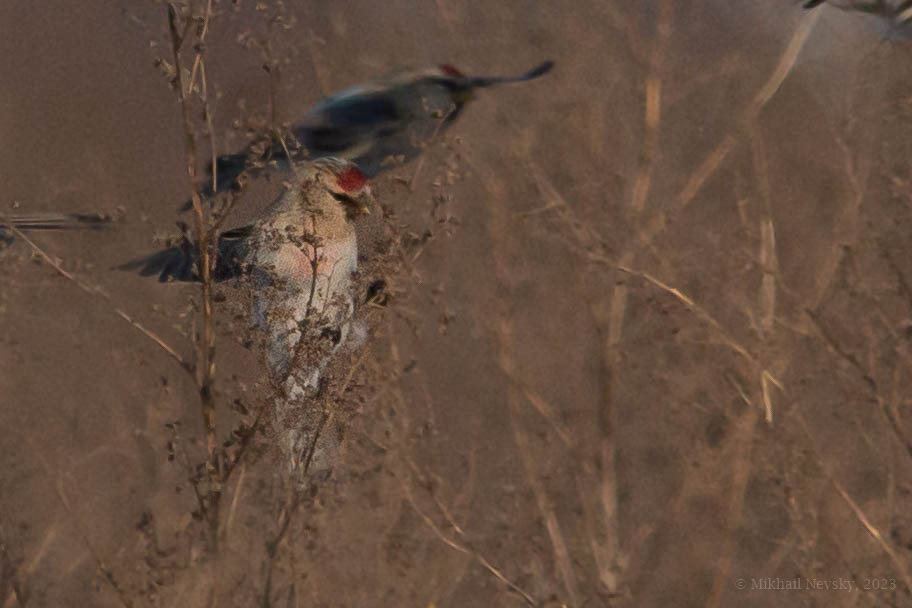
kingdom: Animalia
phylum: Chordata
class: Aves
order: Passeriformes
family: Fringillidae
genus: Acanthis
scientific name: Acanthis hornemanni
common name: Arctic redpoll
